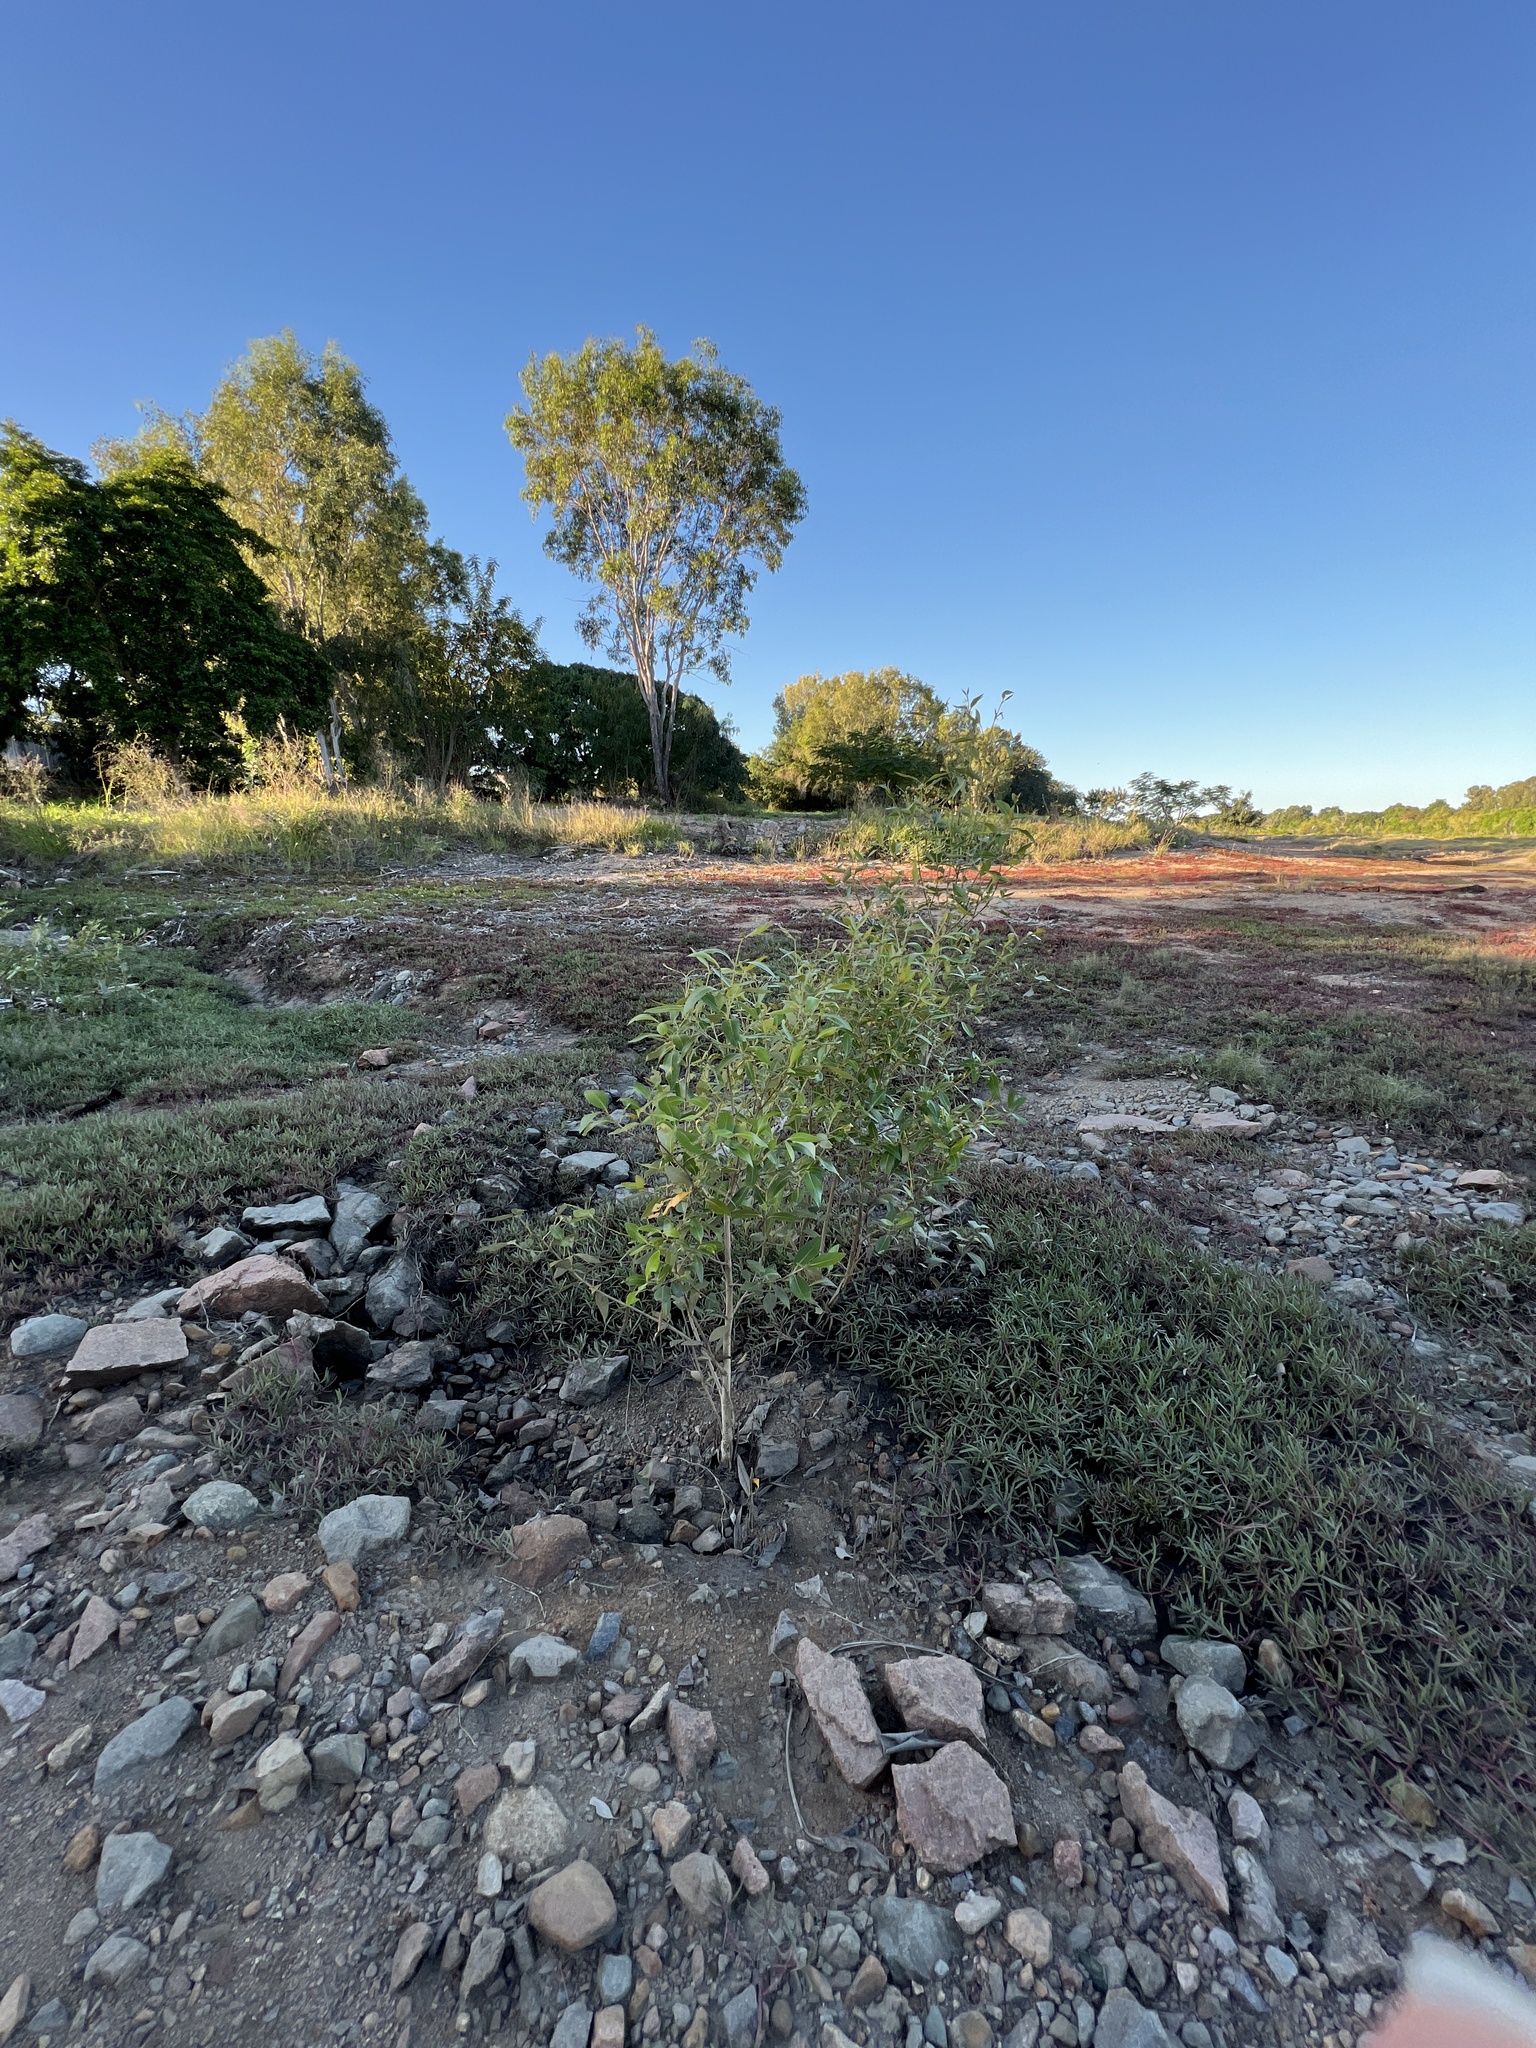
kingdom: Plantae
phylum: Tracheophyta
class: Magnoliopsida
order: Lamiales
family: Acanthaceae
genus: Avicennia
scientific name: Avicennia marina
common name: Gray mangrove
